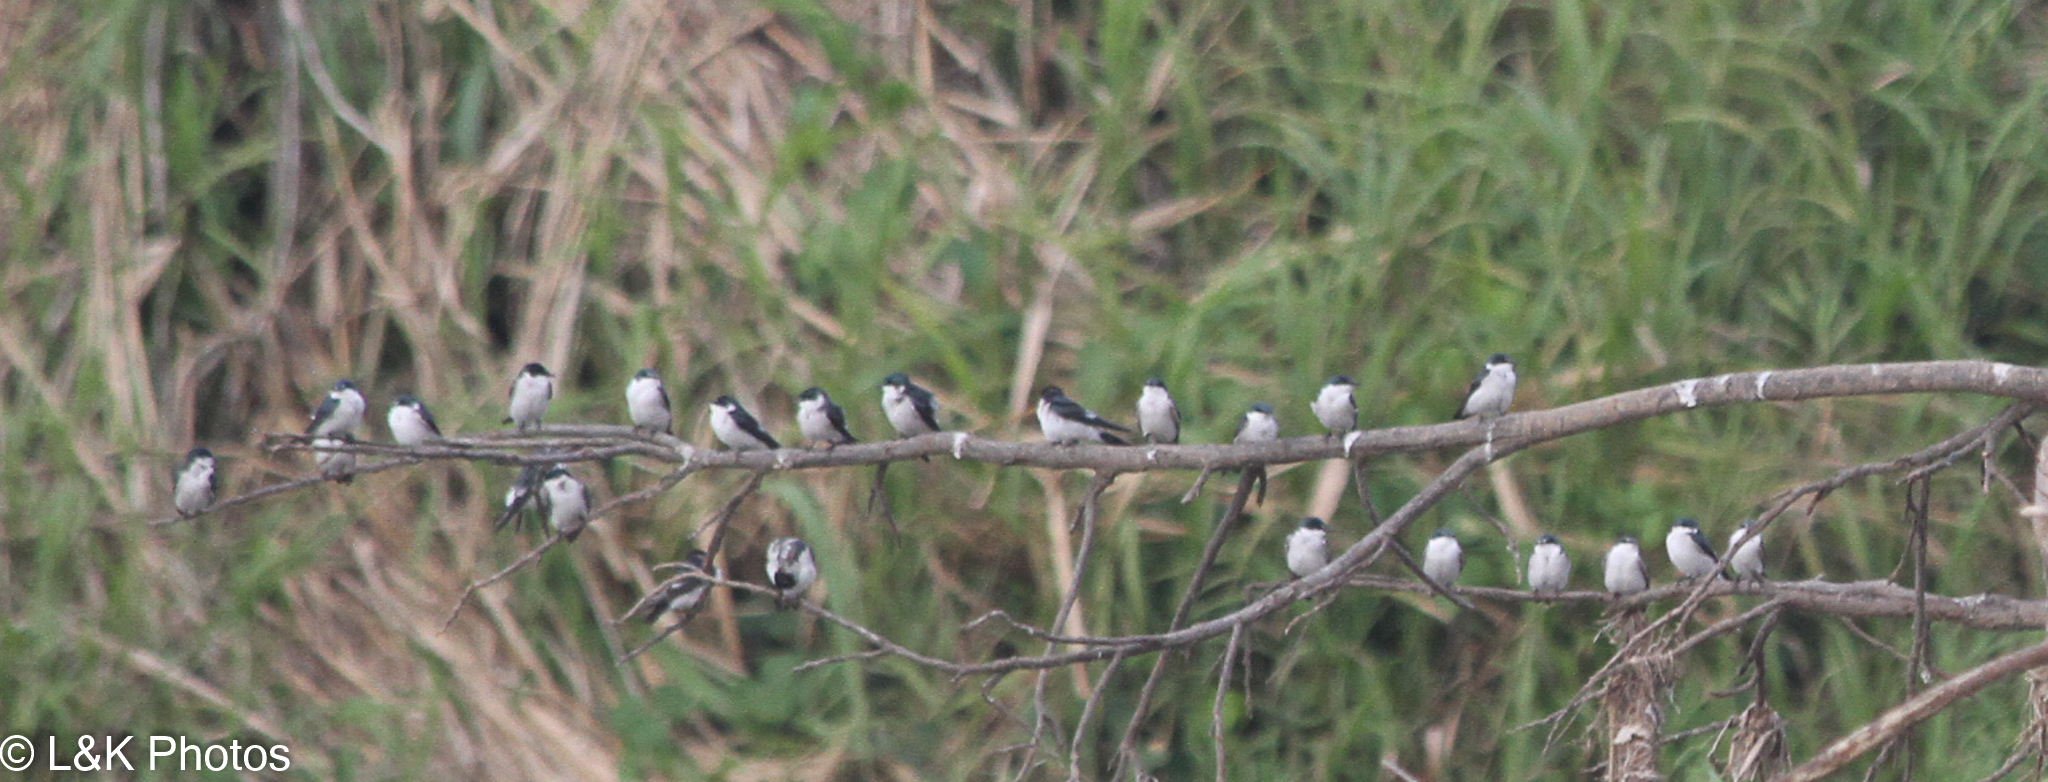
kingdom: Animalia
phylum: Chordata
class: Aves
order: Passeriformes
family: Hirundinidae
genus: Tachycineta
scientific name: Tachycineta albilinea
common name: Mangrove swallow
